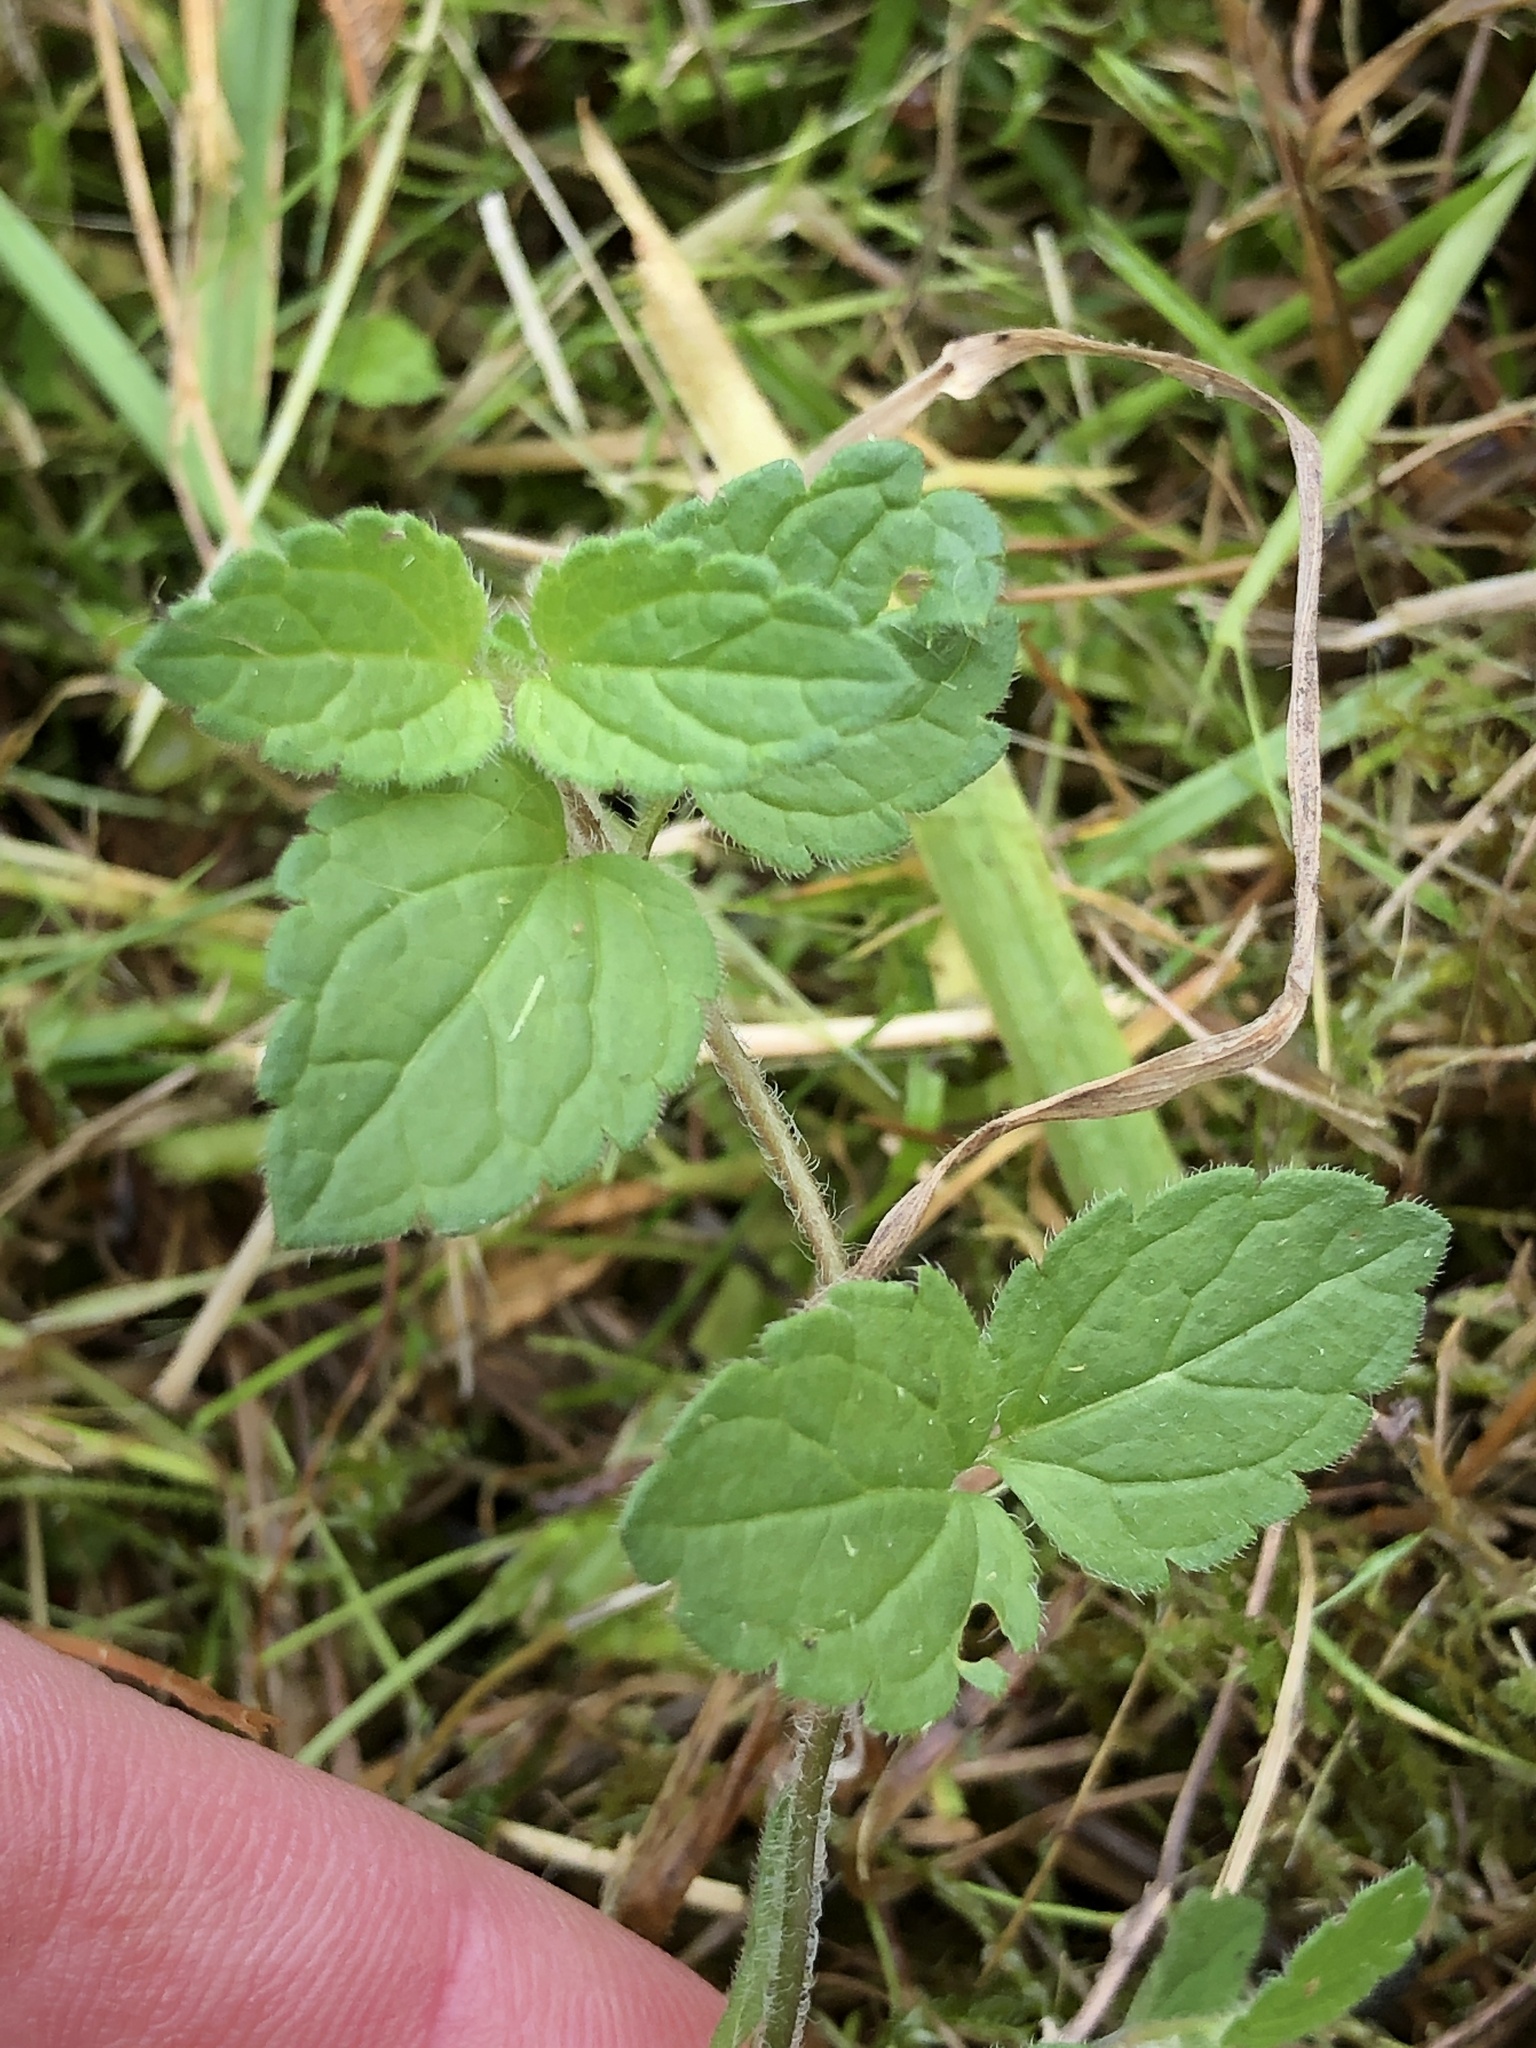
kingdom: Plantae
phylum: Tracheophyta
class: Magnoliopsida
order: Lamiales
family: Plantaginaceae
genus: Veronica
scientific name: Veronica chamaedrys
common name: Germander speedwell
